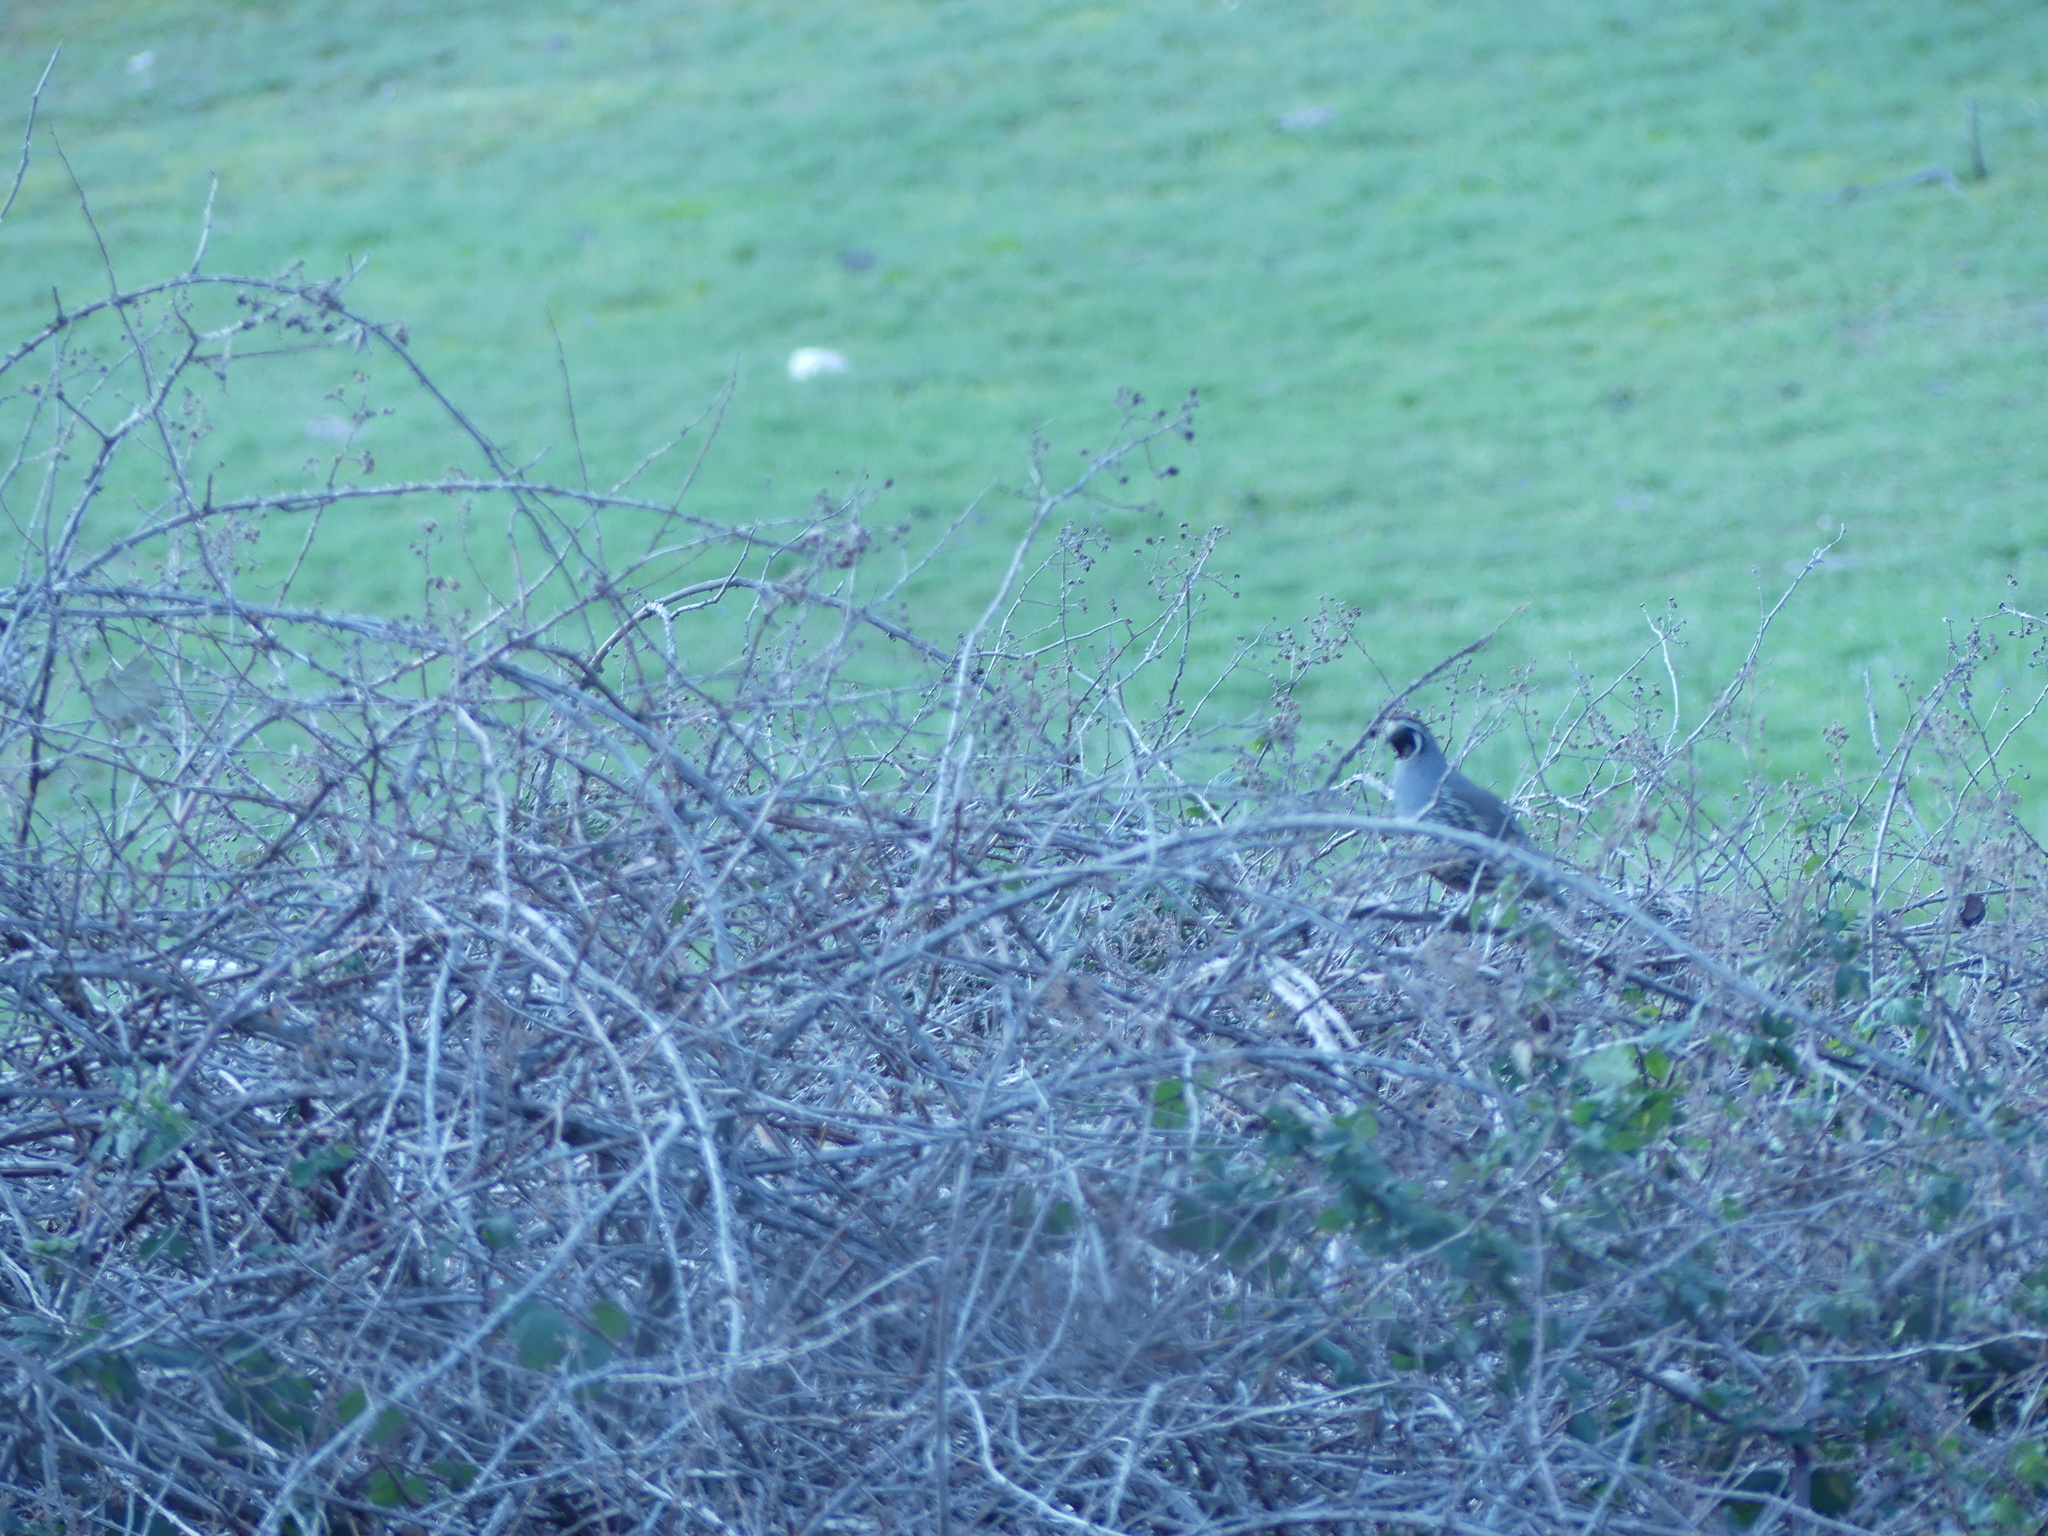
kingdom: Animalia
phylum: Chordata
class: Aves
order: Galliformes
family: Odontophoridae
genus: Callipepla
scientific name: Callipepla californica
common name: California quail
